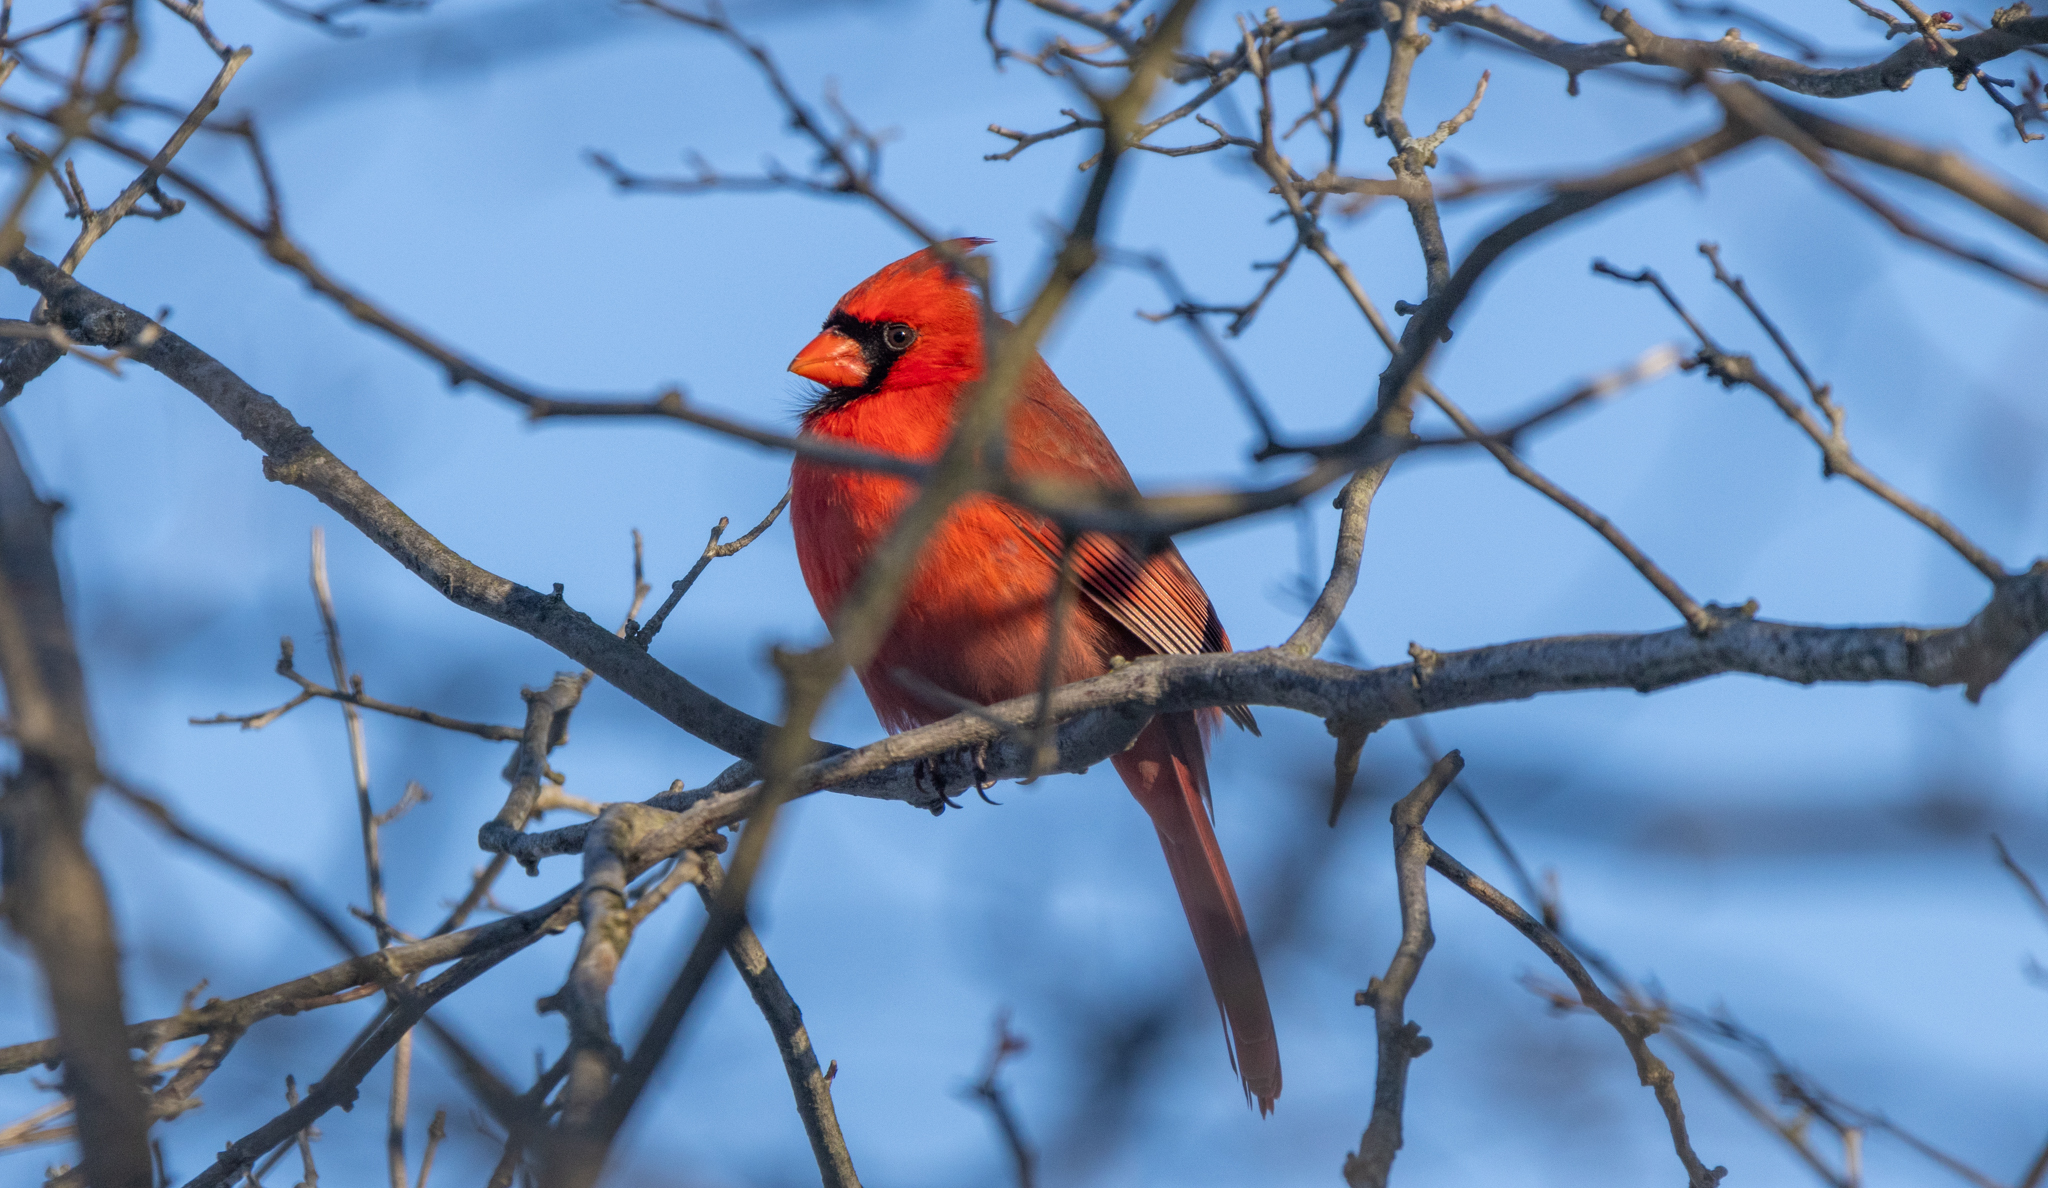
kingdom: Animalia
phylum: Chordata
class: Aves
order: Passeriformes
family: Cardinalidae
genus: Cardinalis
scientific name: Cardinalis cardinalis
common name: Northern cardinal
